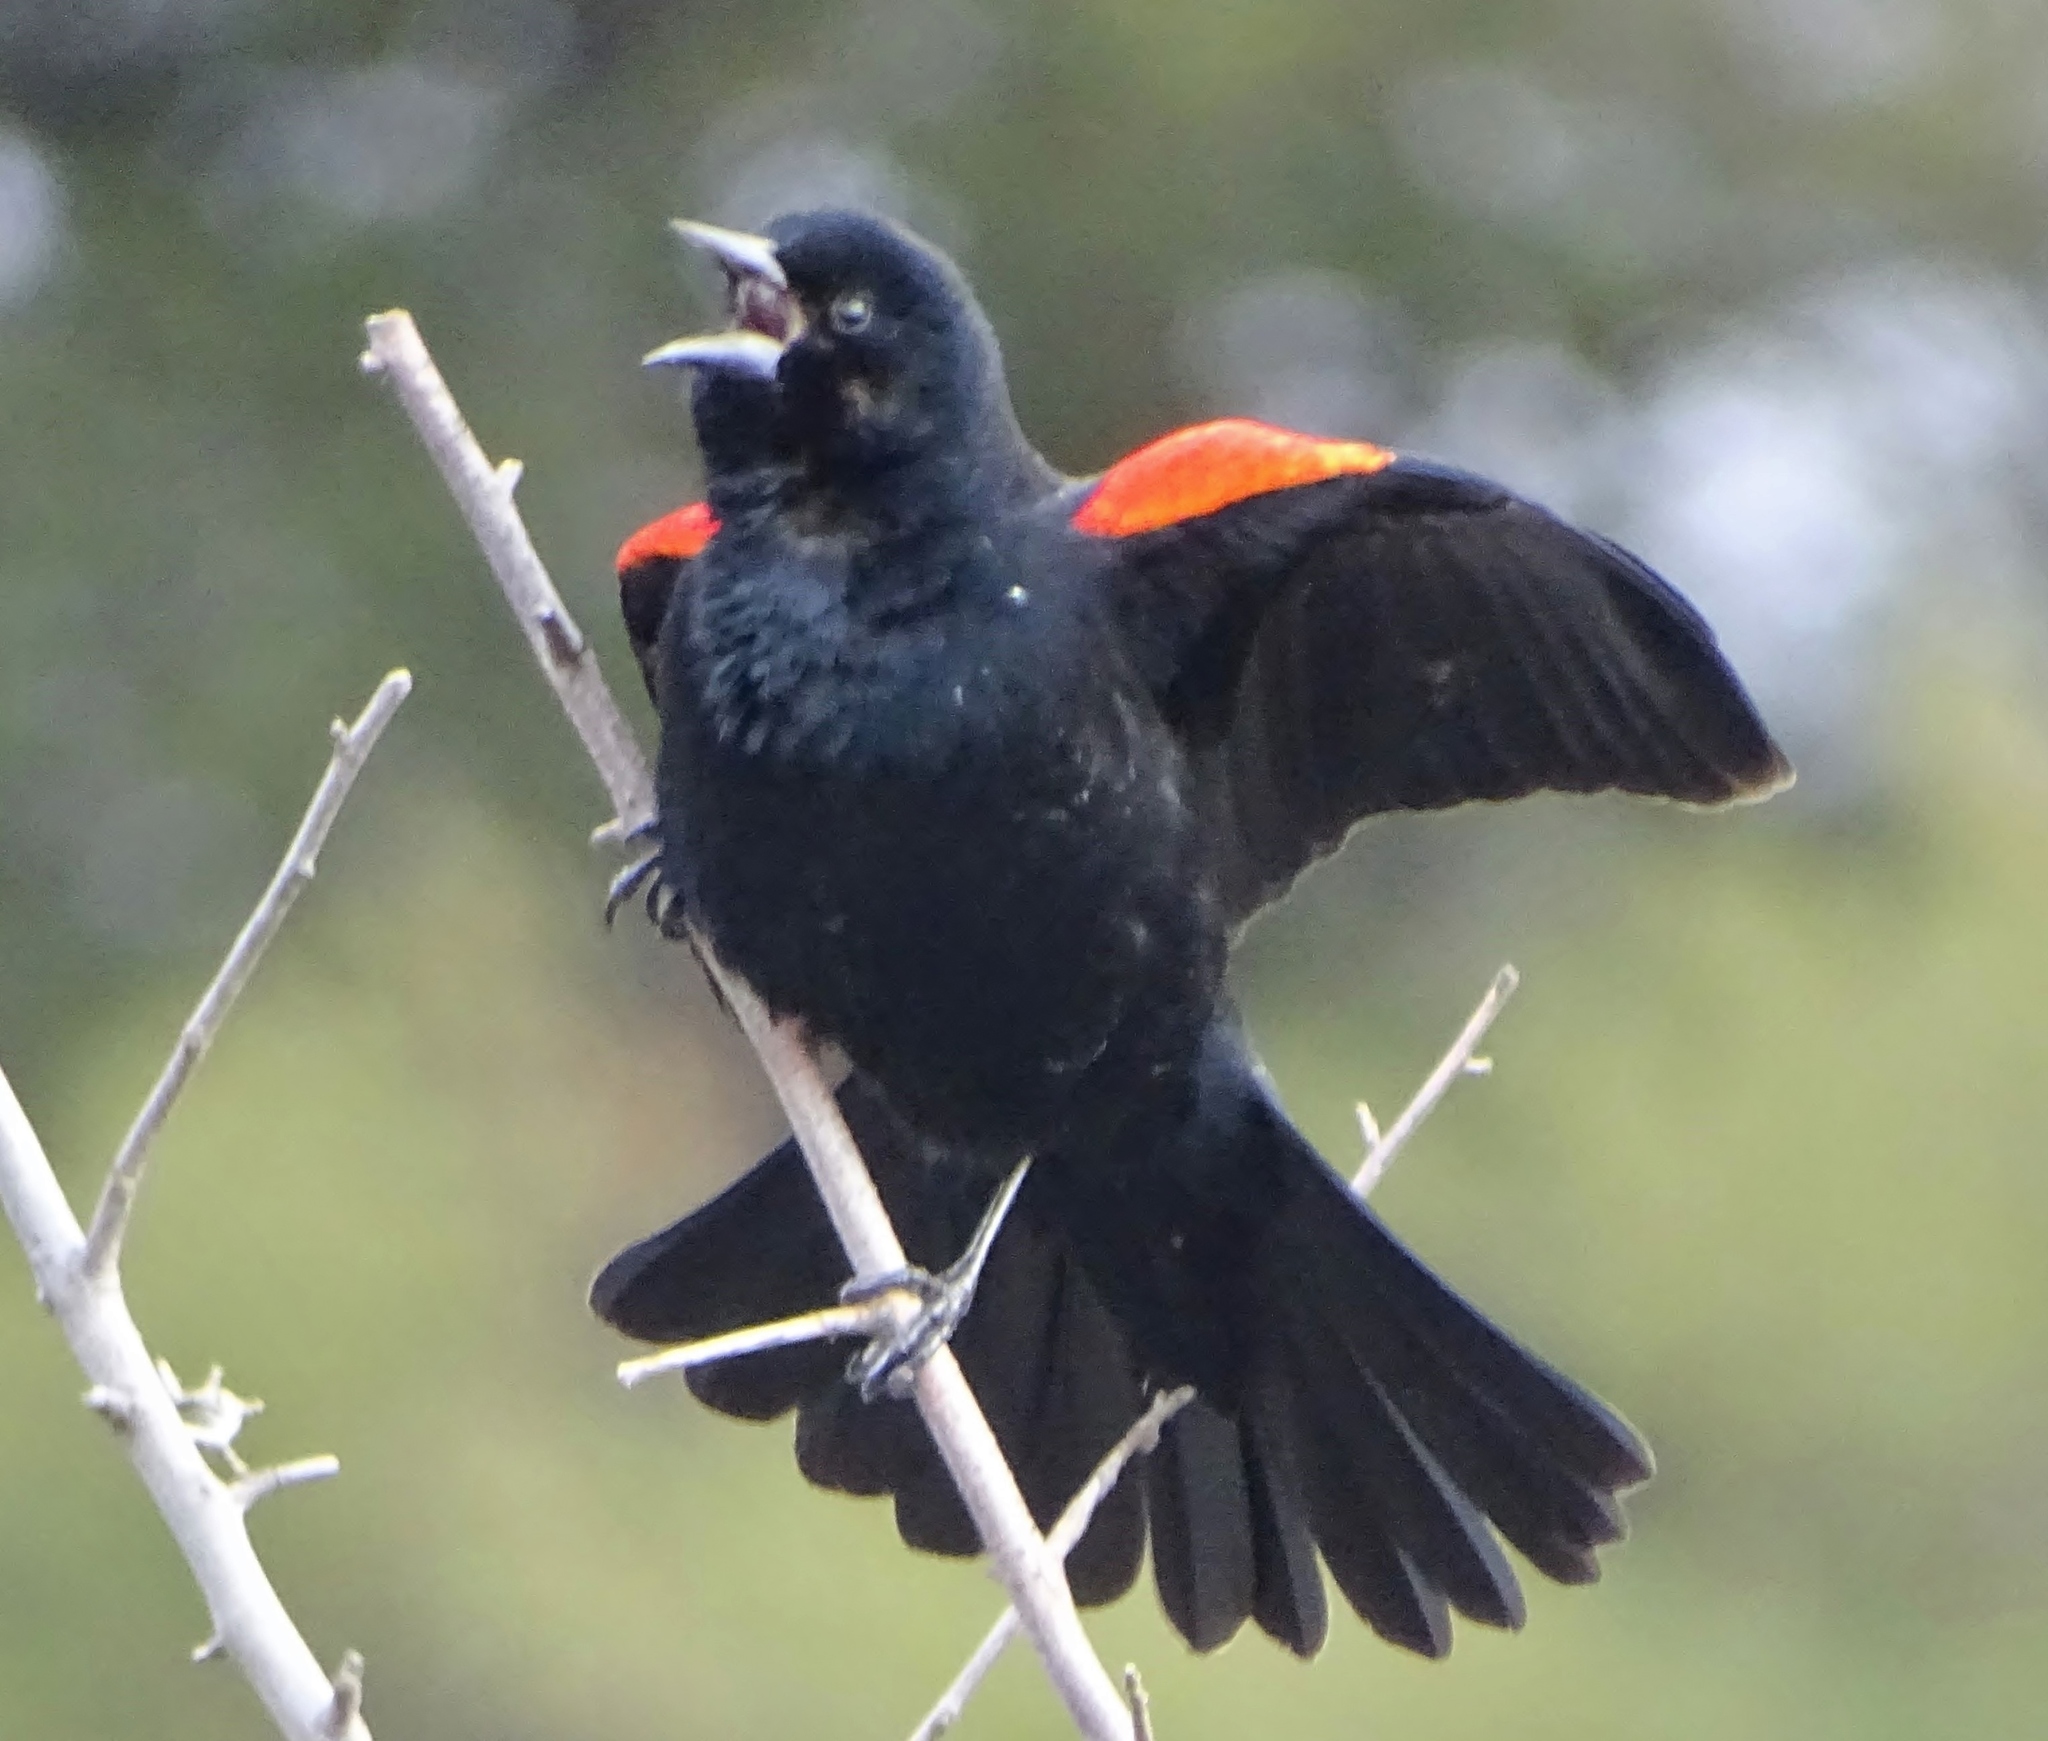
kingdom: Animalia
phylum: Chordata
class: Aves
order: Passeriformes
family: Icteridae
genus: Agelaius
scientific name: Agelaius phoeniceus
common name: Red-winged blackbird
